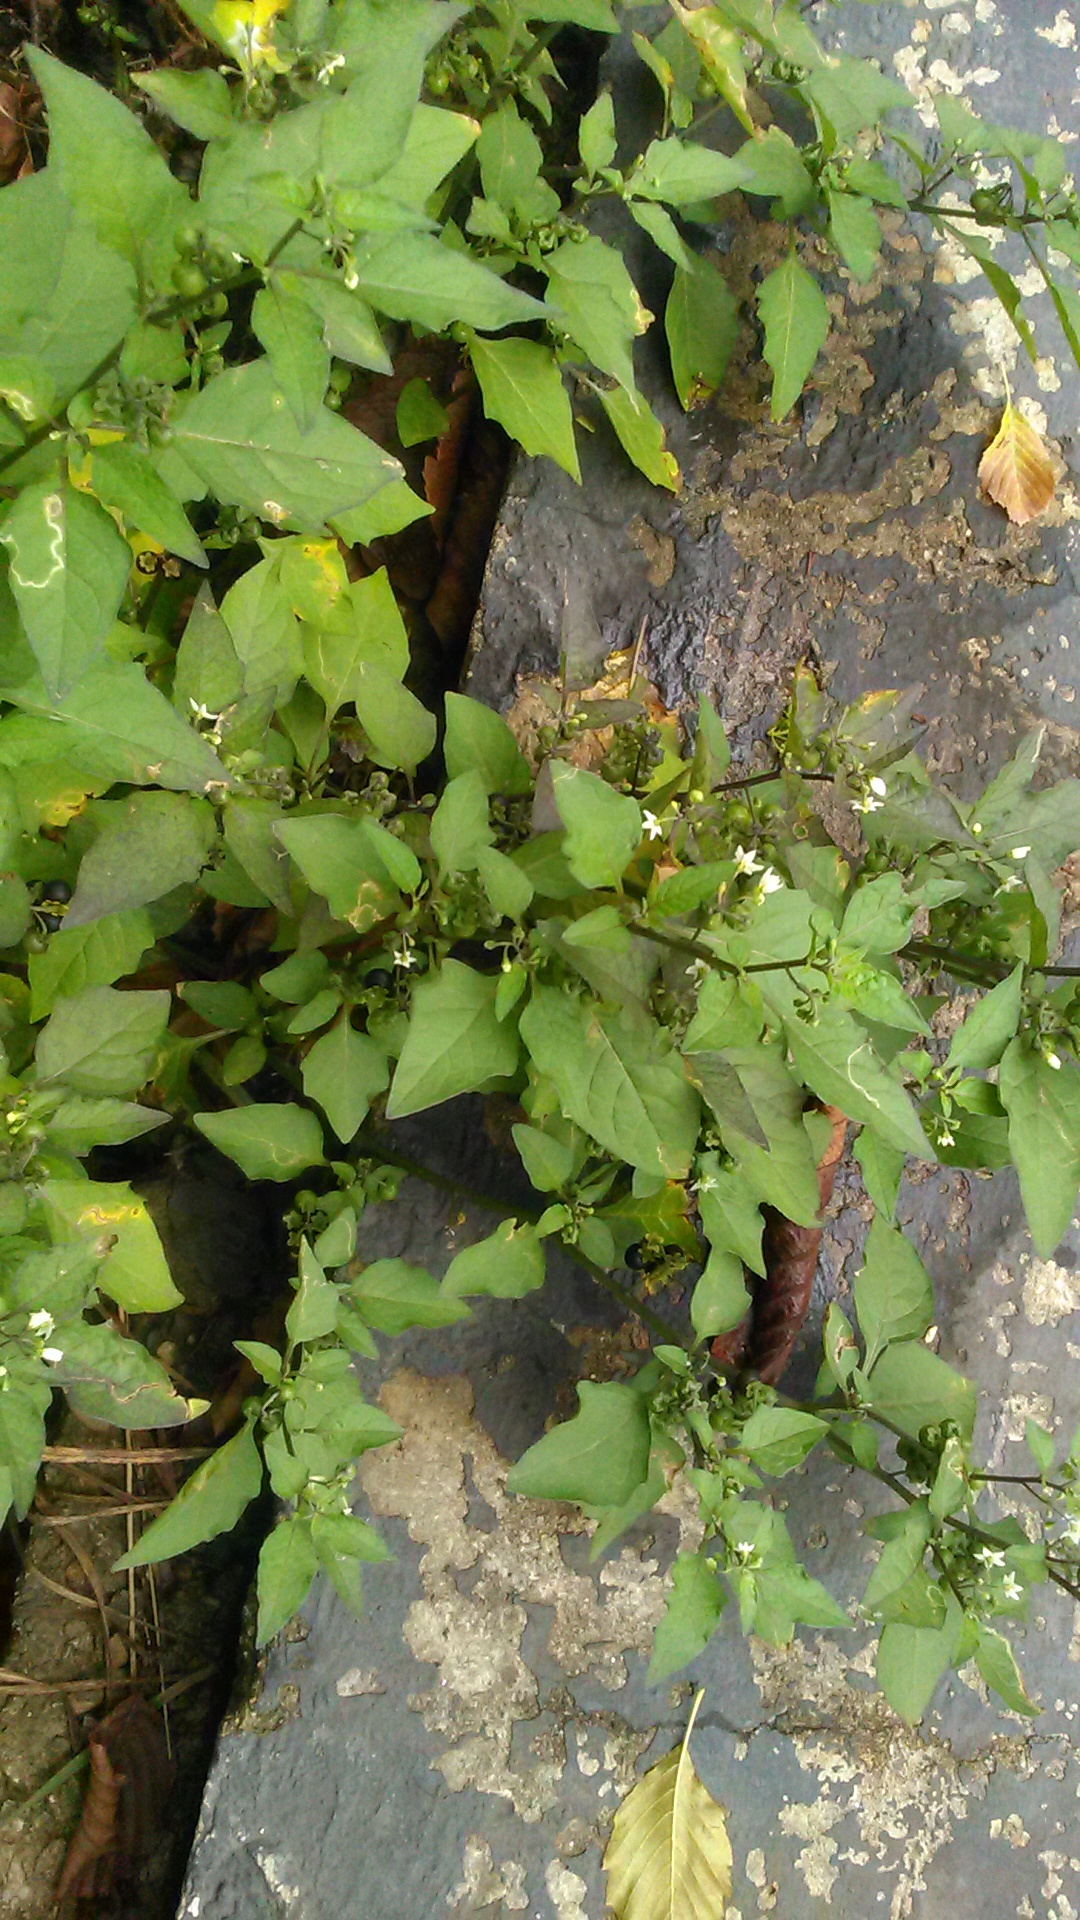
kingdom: Plantae
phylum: Tracheophyta
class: Magnoliopsida
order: Solanales
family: Solanaceae
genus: Solanum
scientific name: Solanum nigrum
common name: Black nightshade
